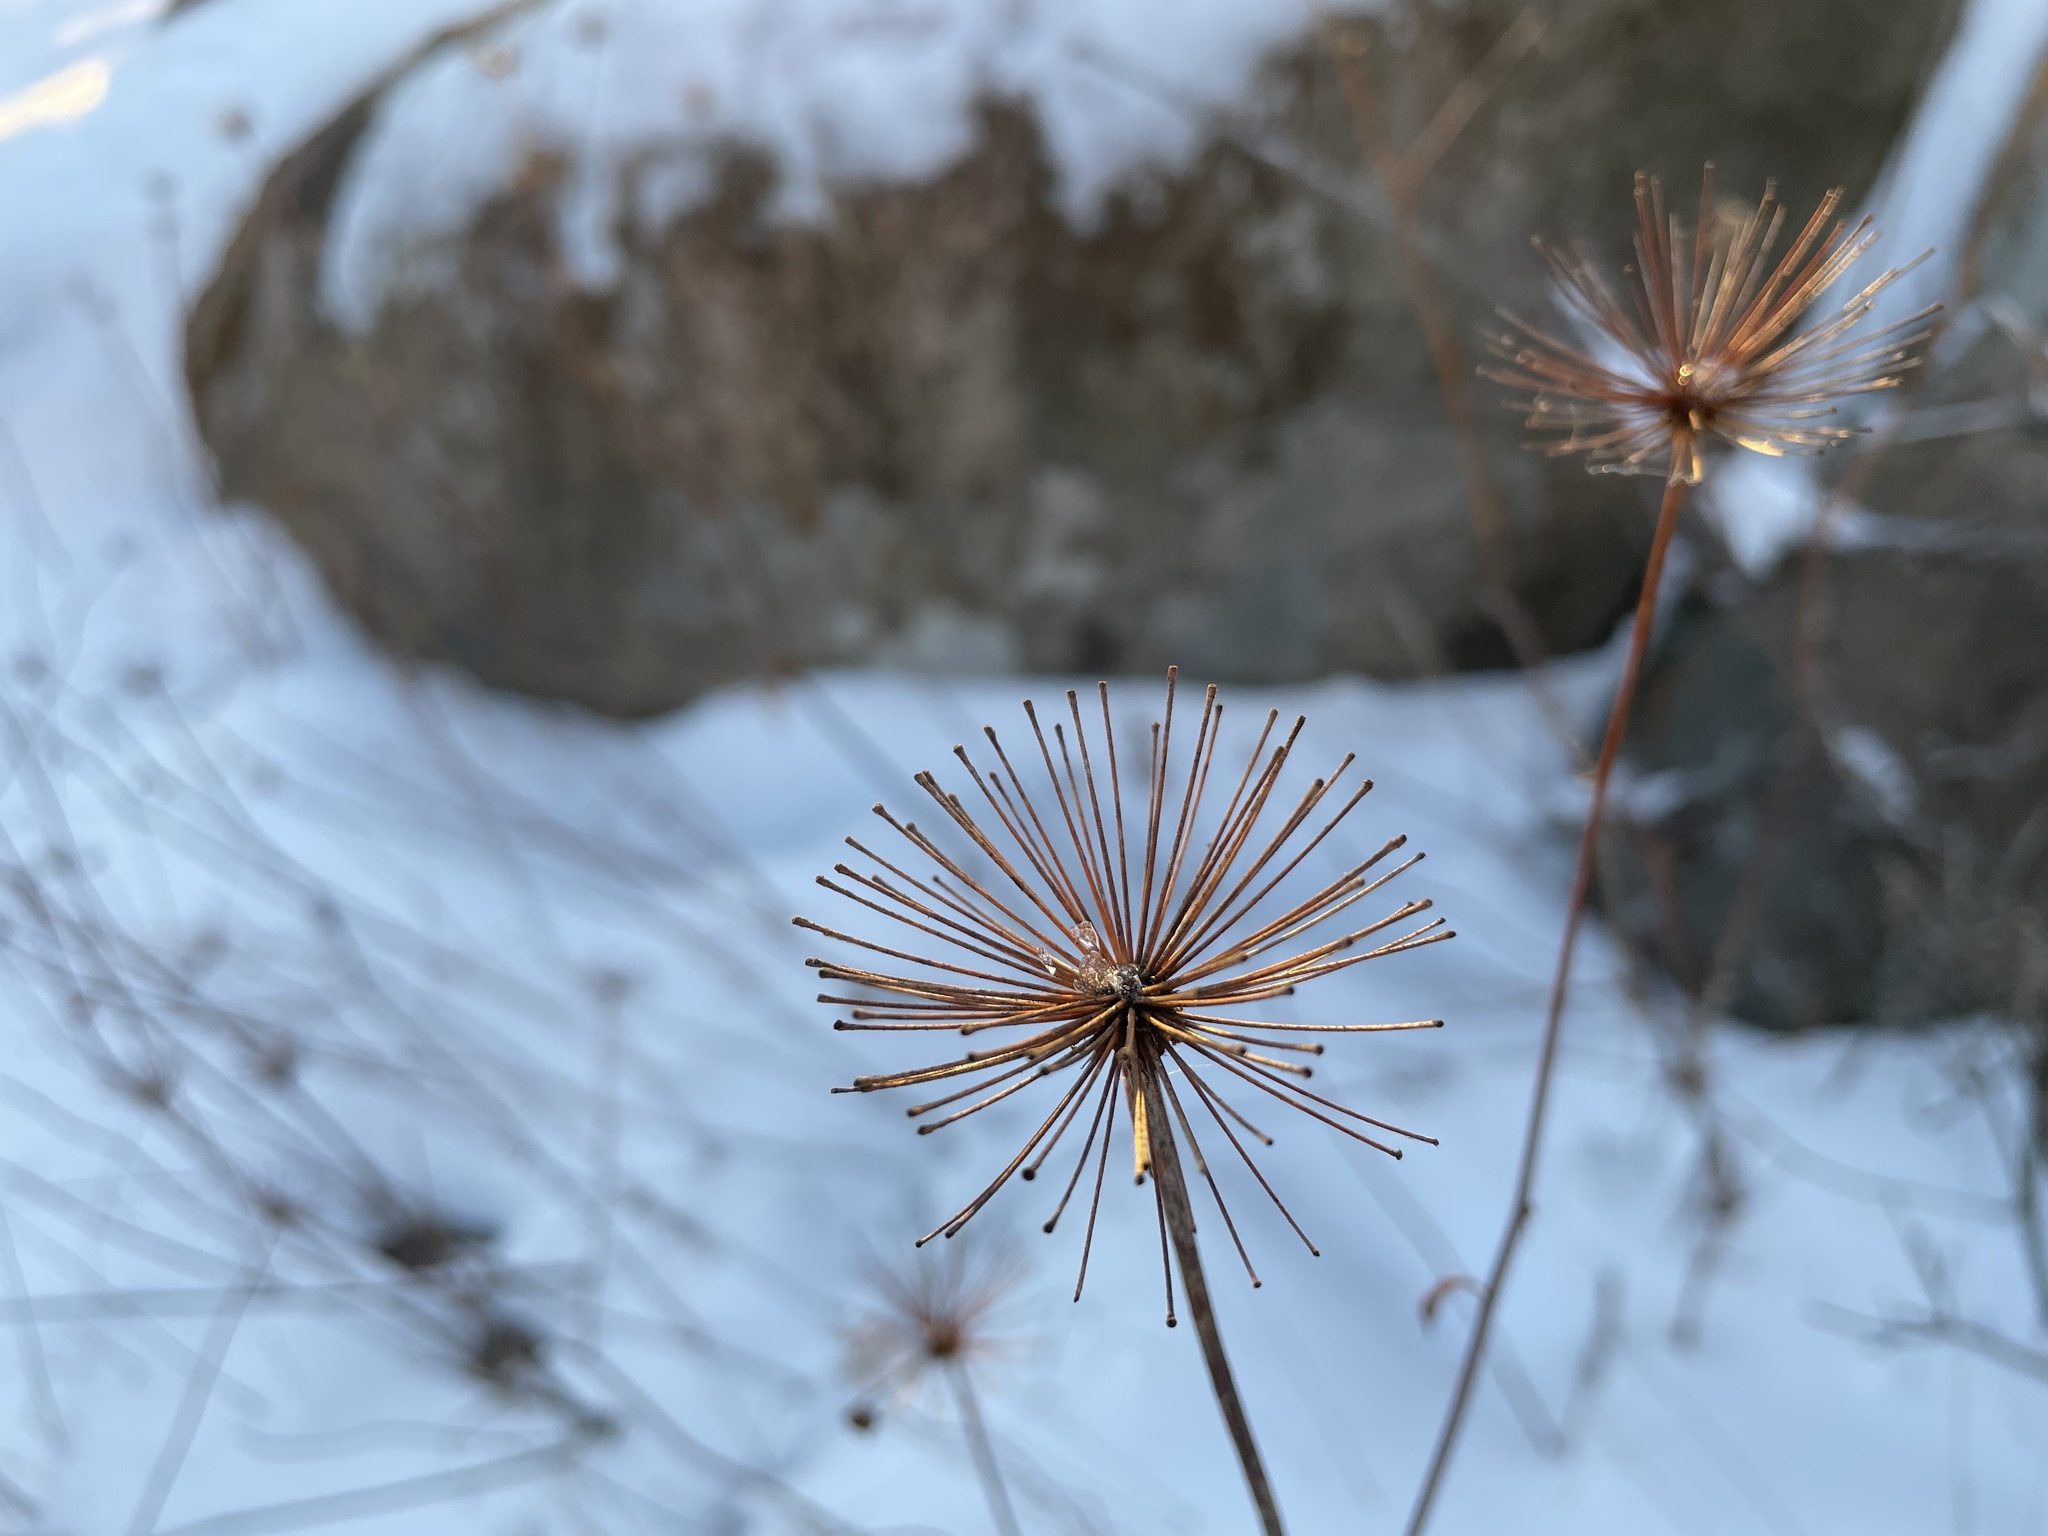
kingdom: Plantae
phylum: Tracheophyta
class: Magnoliopsida
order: Apiales
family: Araliaceae
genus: Aralia
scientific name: Aralia hispida
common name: Bristly sarsaparilla
